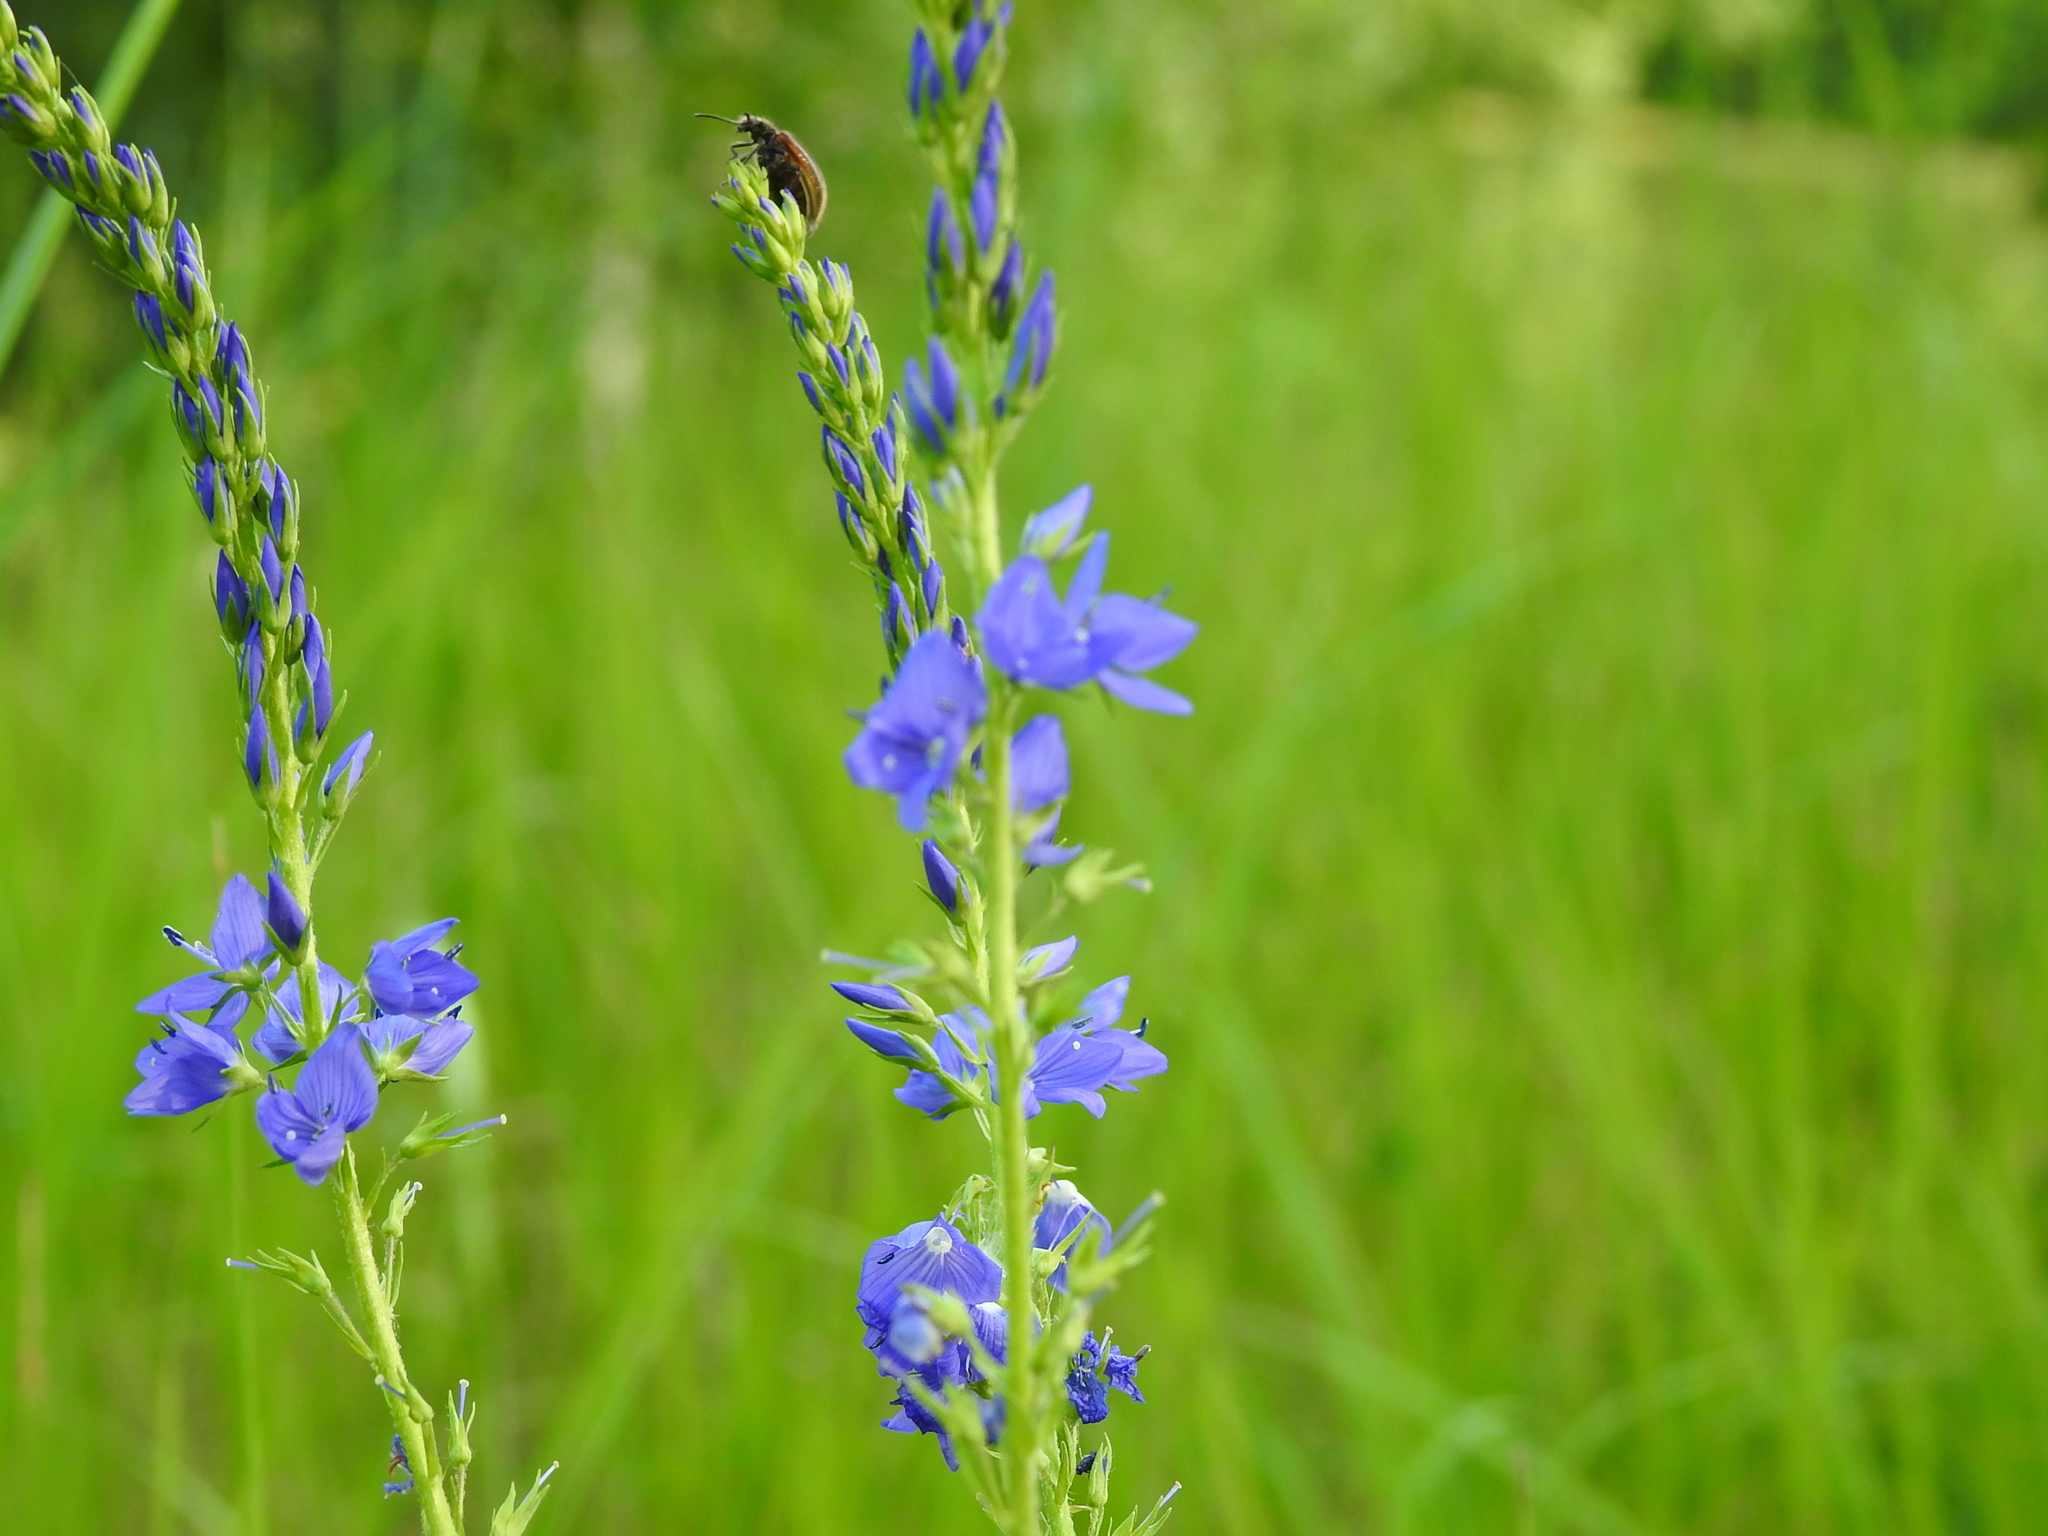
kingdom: Plantae
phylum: Tracheophyta
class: Magnoliopsida
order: Lamiales
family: Plantaginaceae
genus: Veronica
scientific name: Veronica teucrium
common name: Large speedwell
